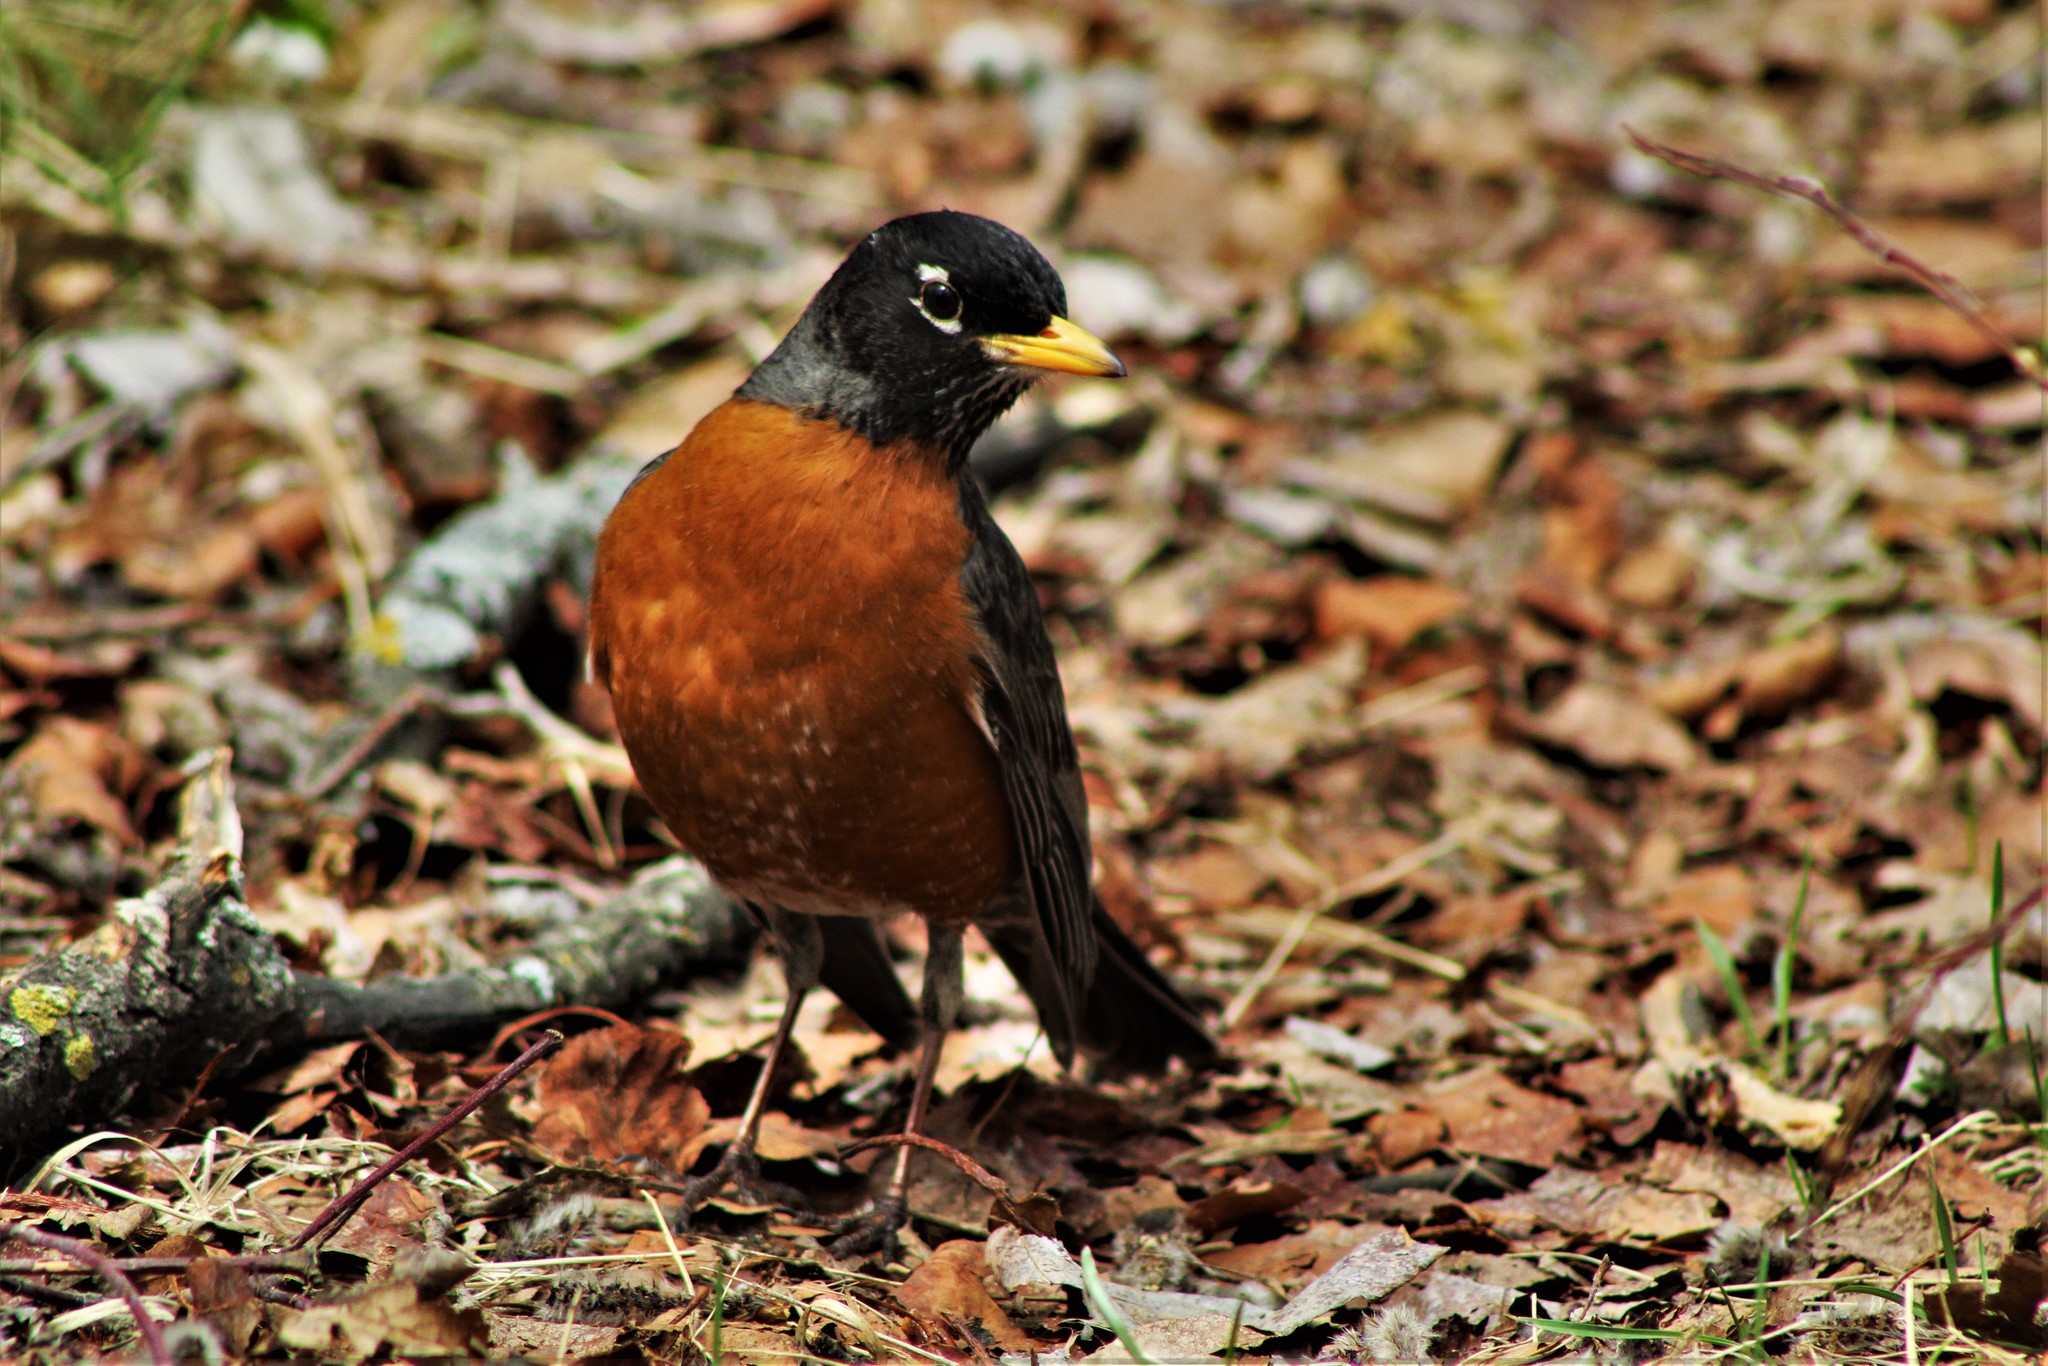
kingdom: Animalia
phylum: Chordata
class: Aves
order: Passeriformes
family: Turdidae
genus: Turdus
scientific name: Turdus migratorius
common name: American robin
